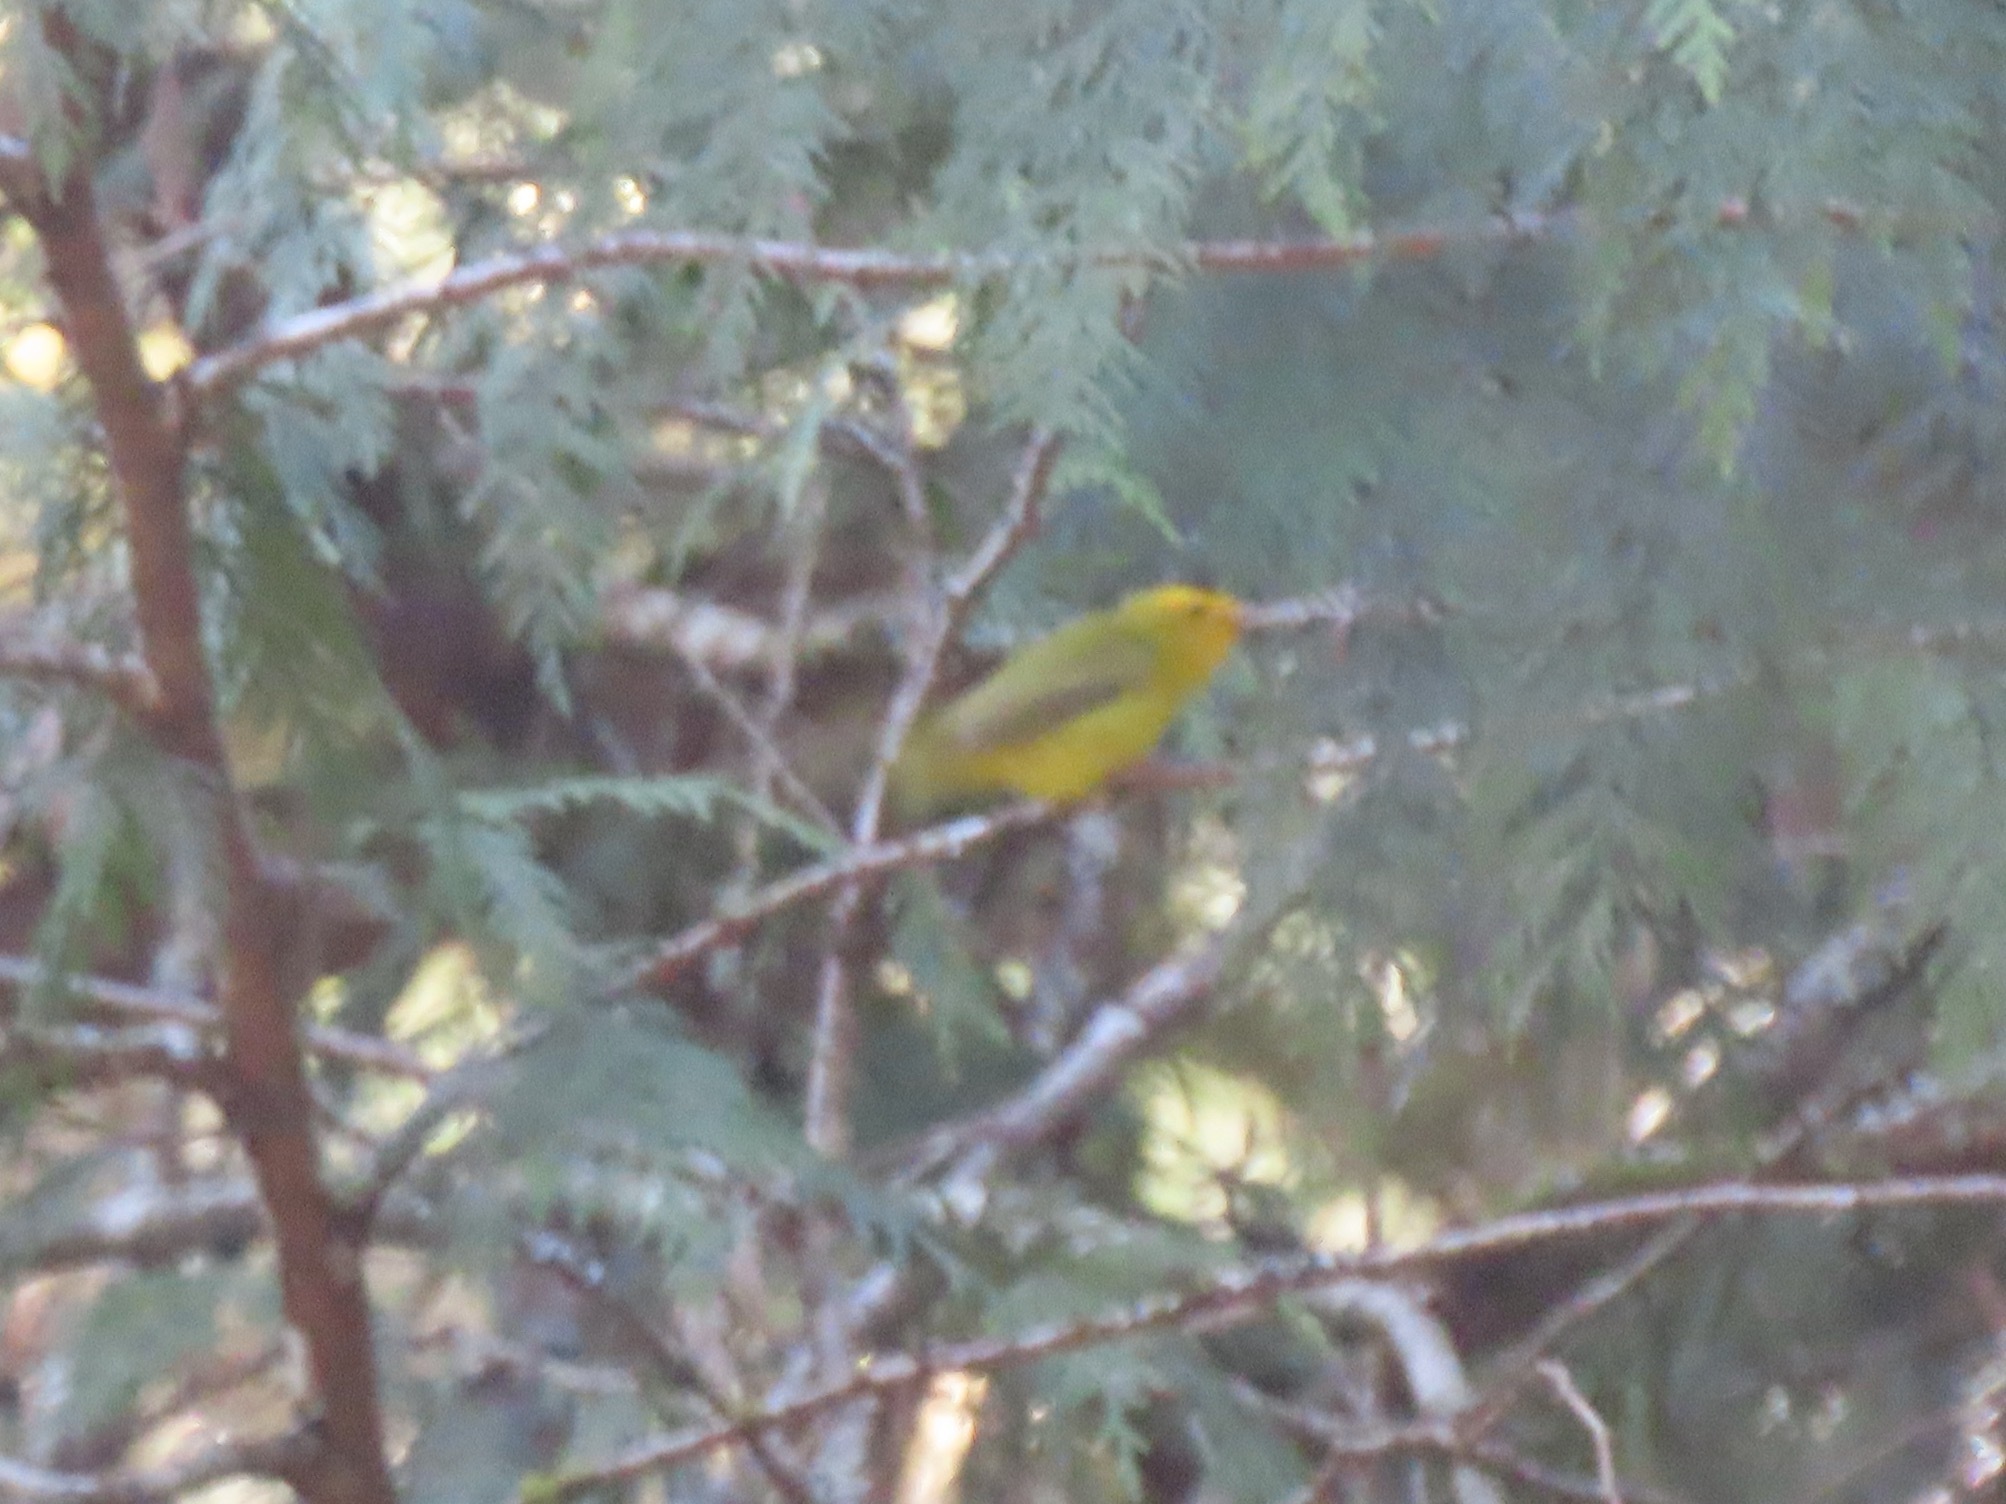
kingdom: Animalia
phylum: Chordata
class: Aves
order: Passeriformes
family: Parulidae
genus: Cardellina
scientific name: Cardellina pusilla
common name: Wilson's warbler
